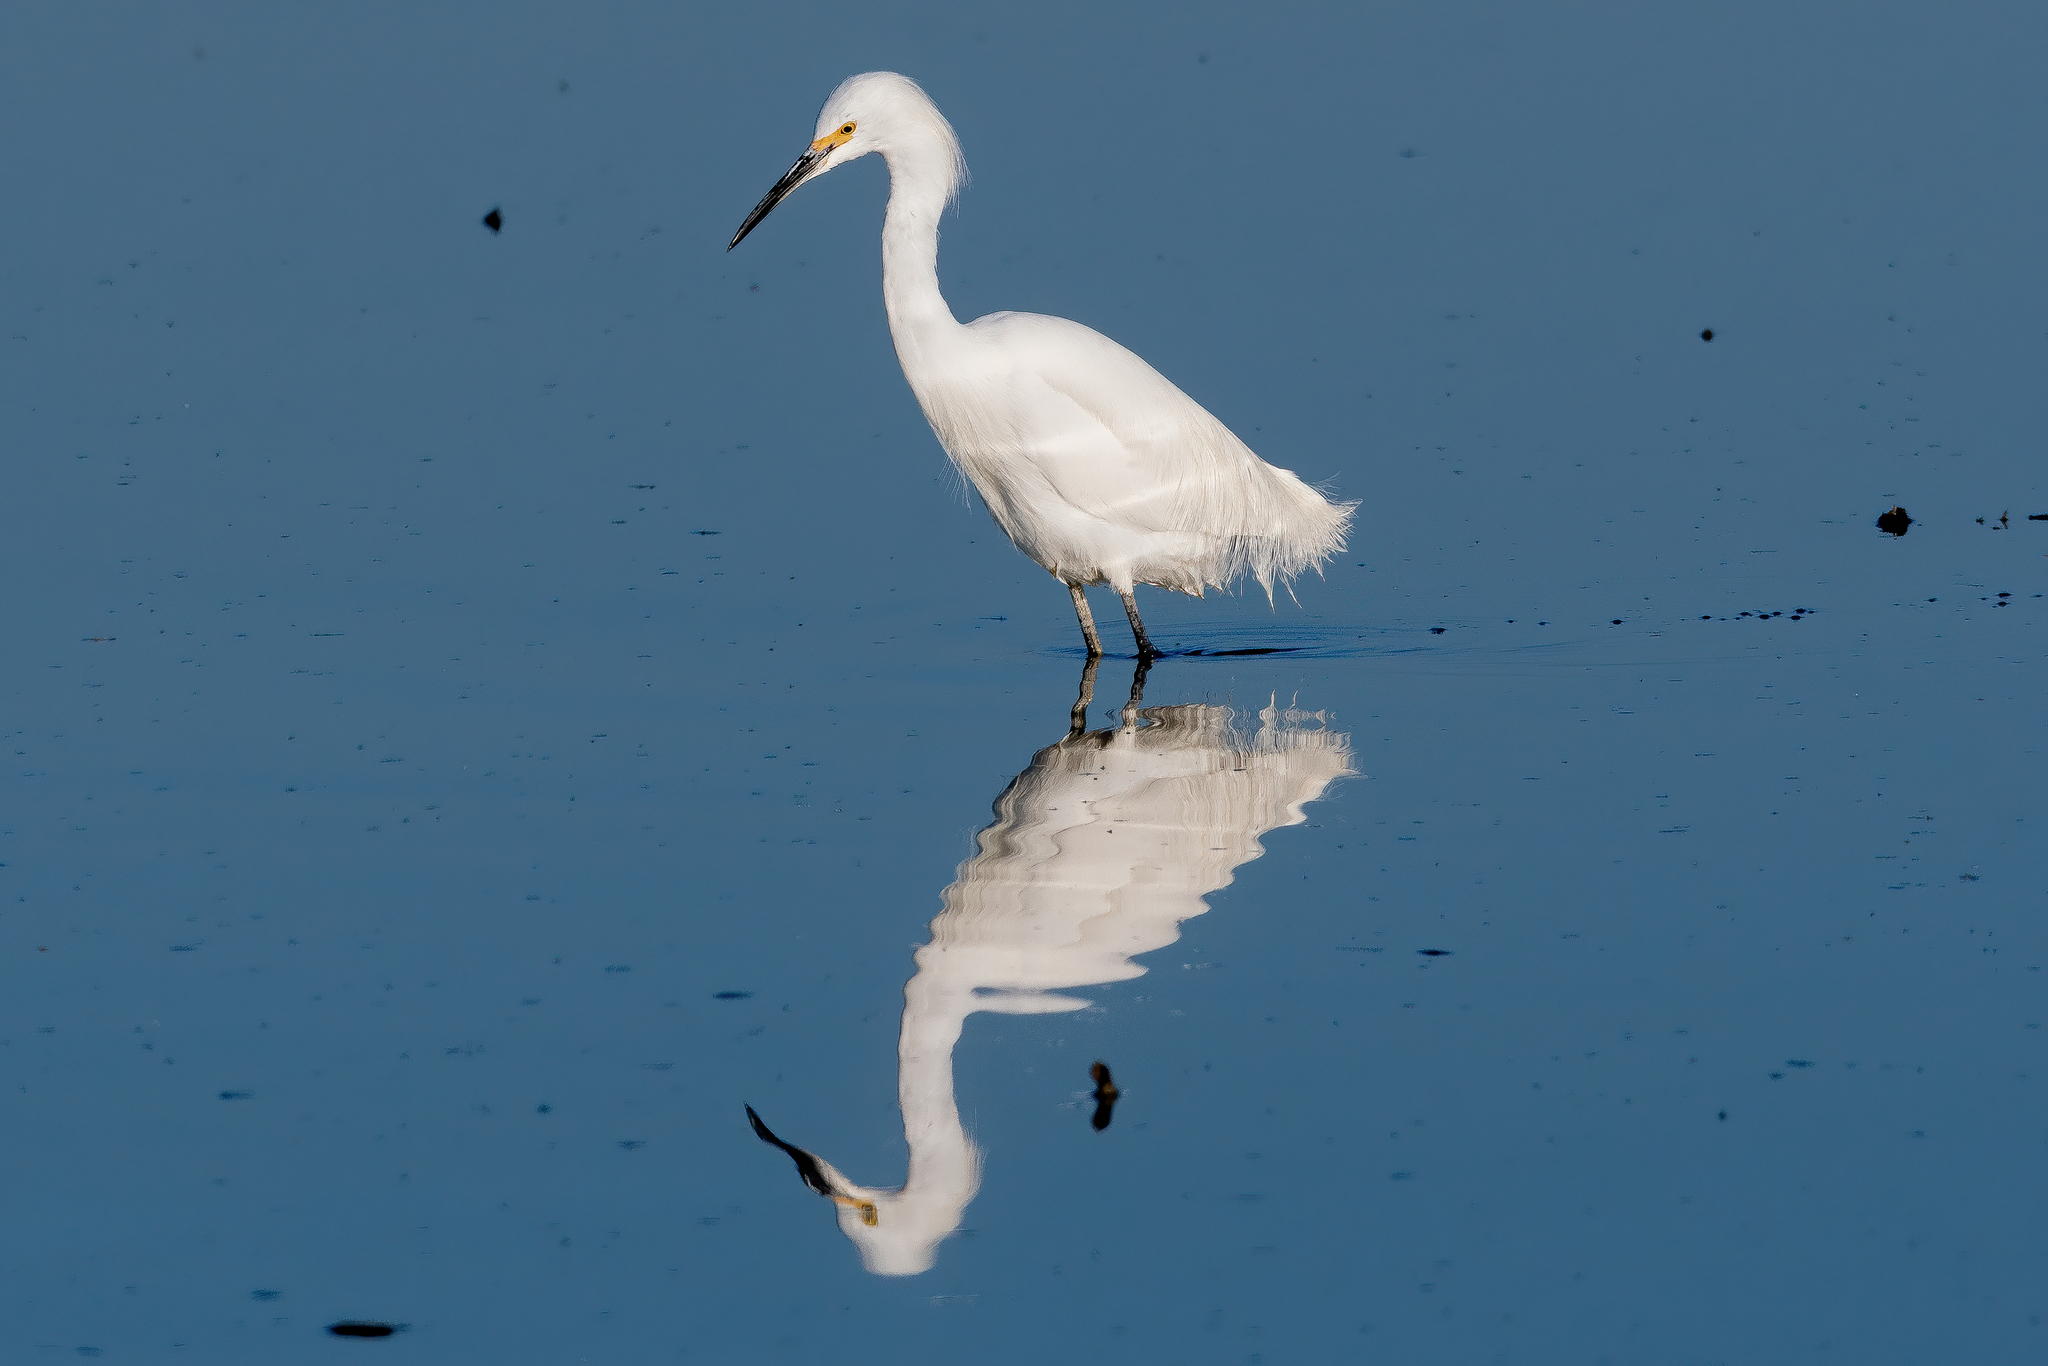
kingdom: Animalia
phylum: Chordata
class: Aves
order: Pelecaniformes
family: Ardeidae
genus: Egretta
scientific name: Egretta thula
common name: Snowy egret
